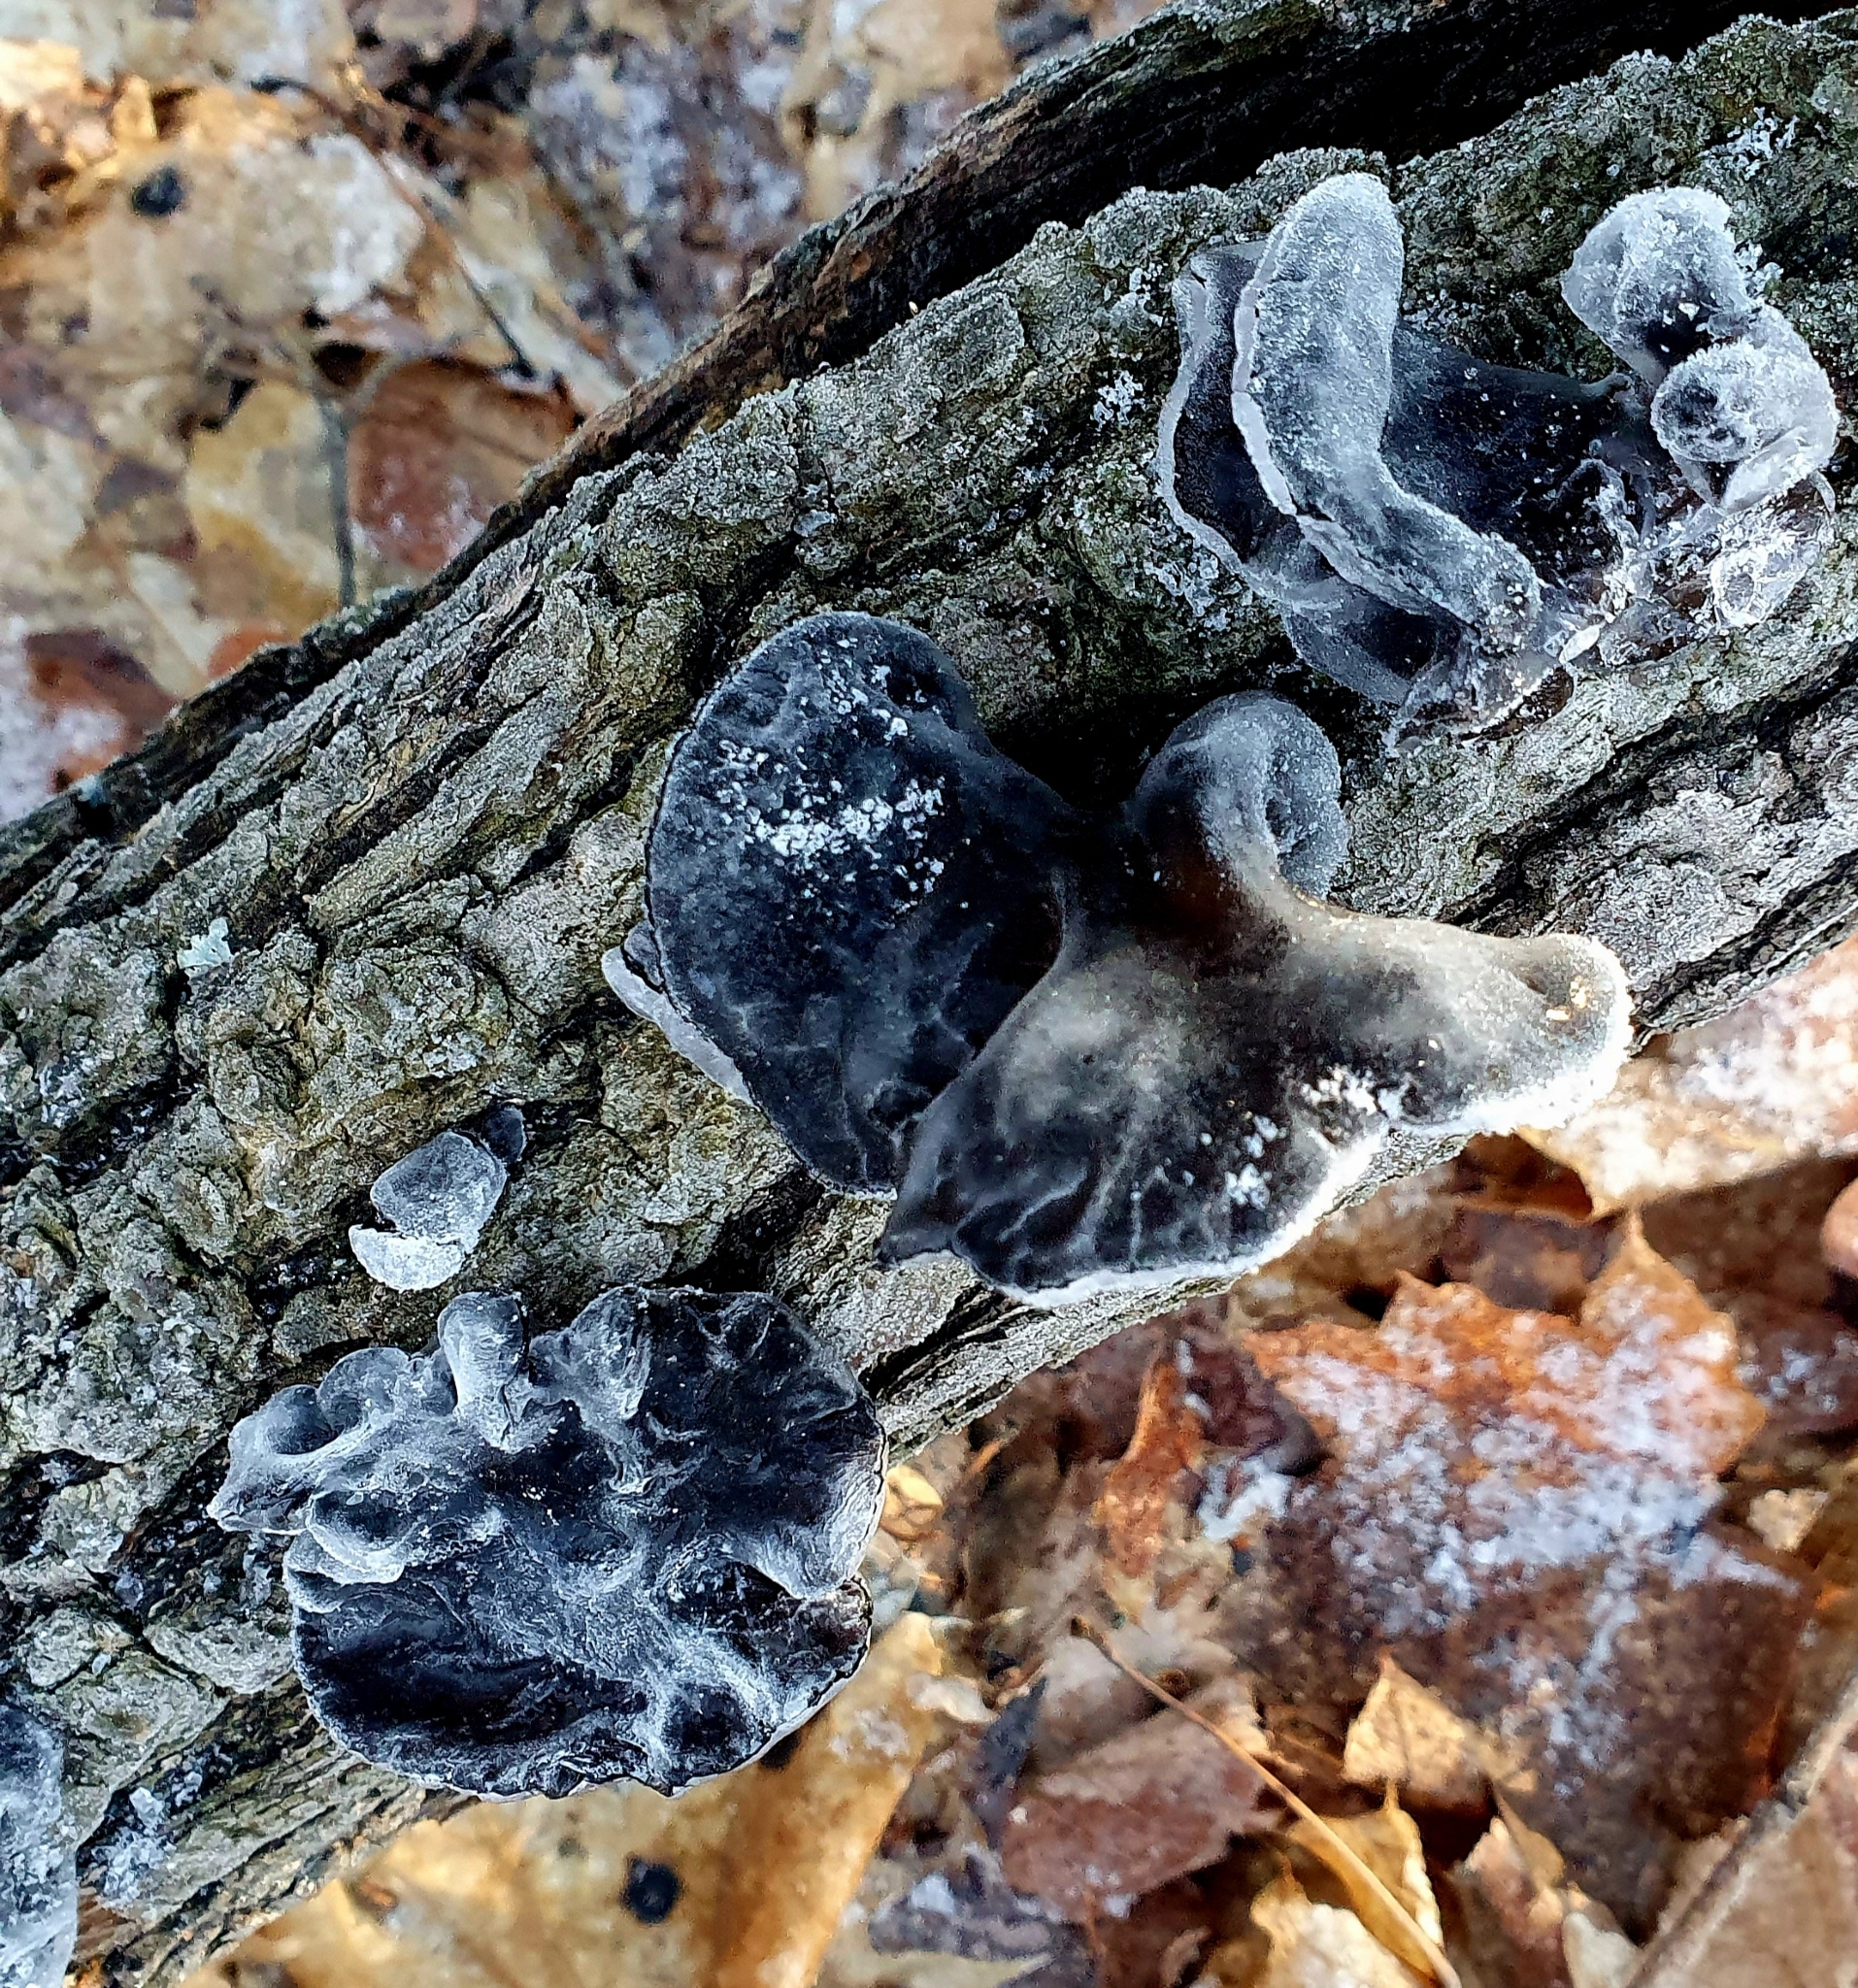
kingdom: Fungi
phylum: Basidiomycota
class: Agaricomycetes
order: Auriculariales
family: Auriculariaceae
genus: Exidia
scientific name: Exidia glandulosa
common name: Witches' butter
